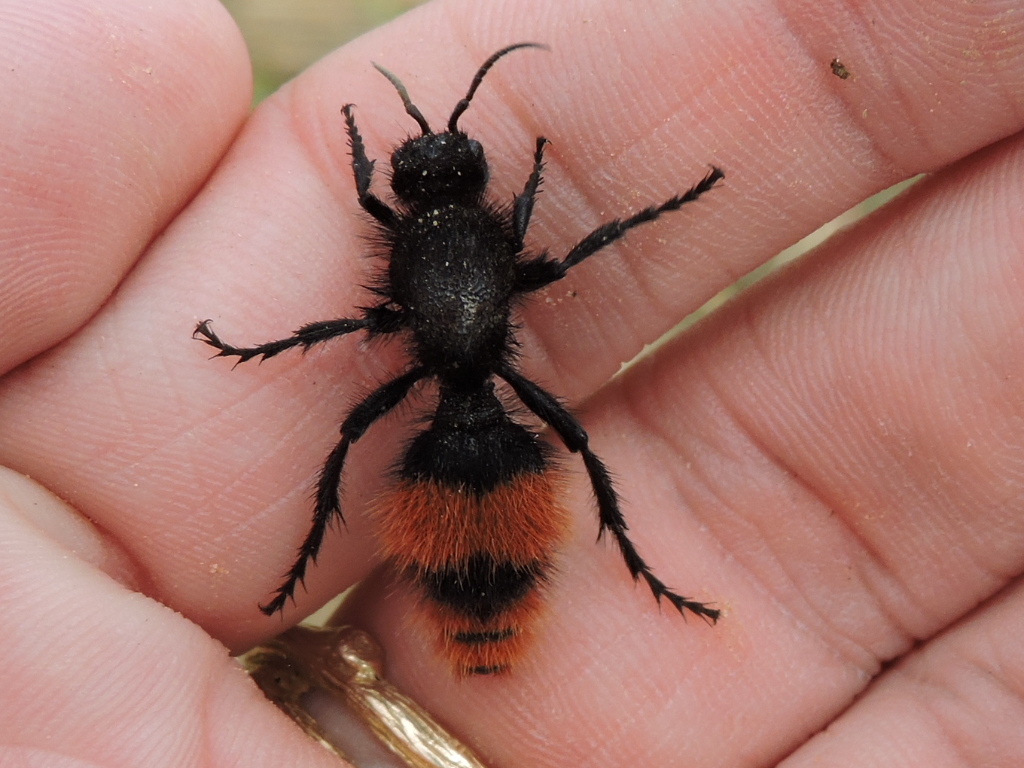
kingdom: Animalia
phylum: Arthropoda
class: Insecta
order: Hymenoptera
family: Mutillidae
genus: Dasymutilla
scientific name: Dasymutilla
